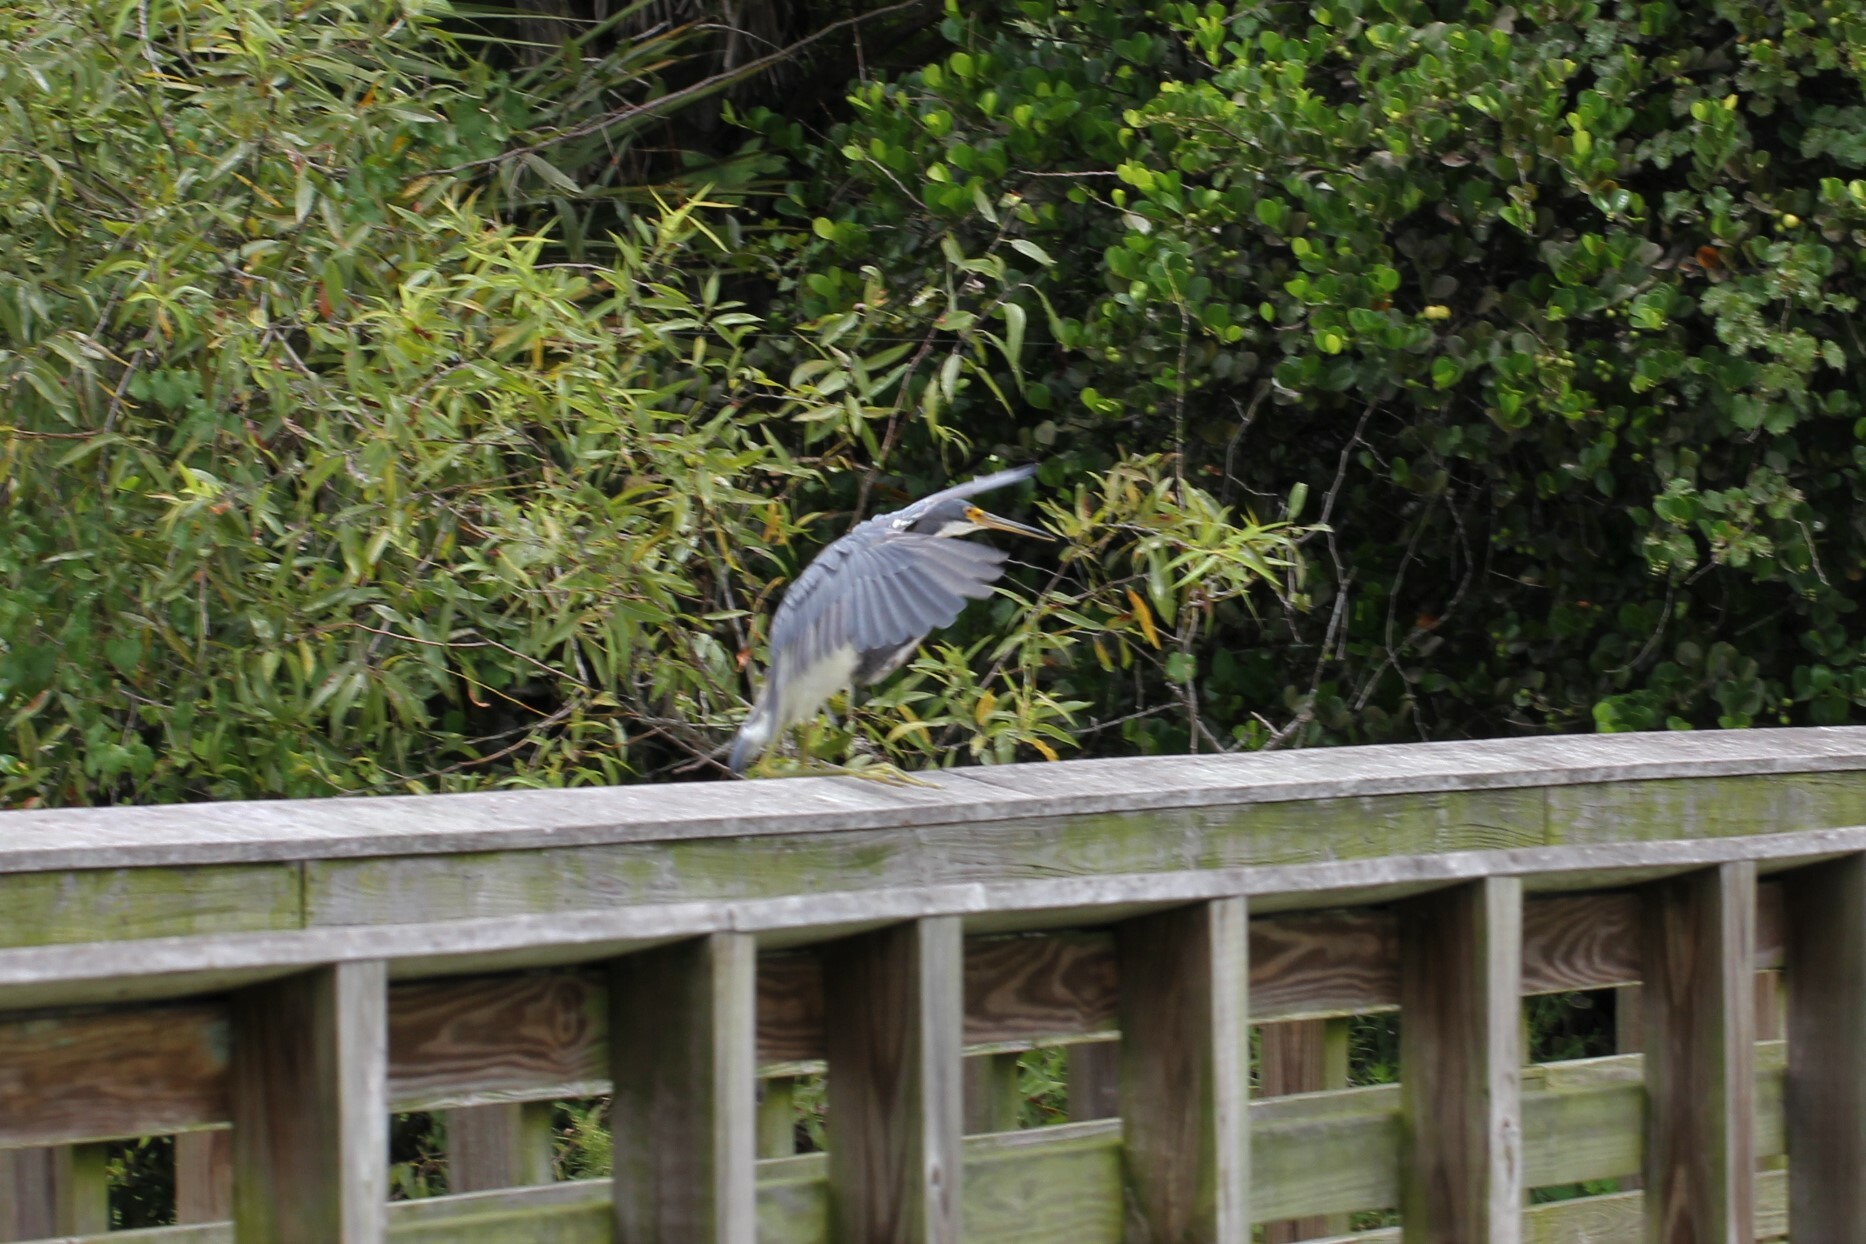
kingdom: Animalia
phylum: Chordata
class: Aves
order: Pelecaniformes
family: Ardeidae
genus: Egretta
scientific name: Egretta tricolor
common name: Tricolored heron
